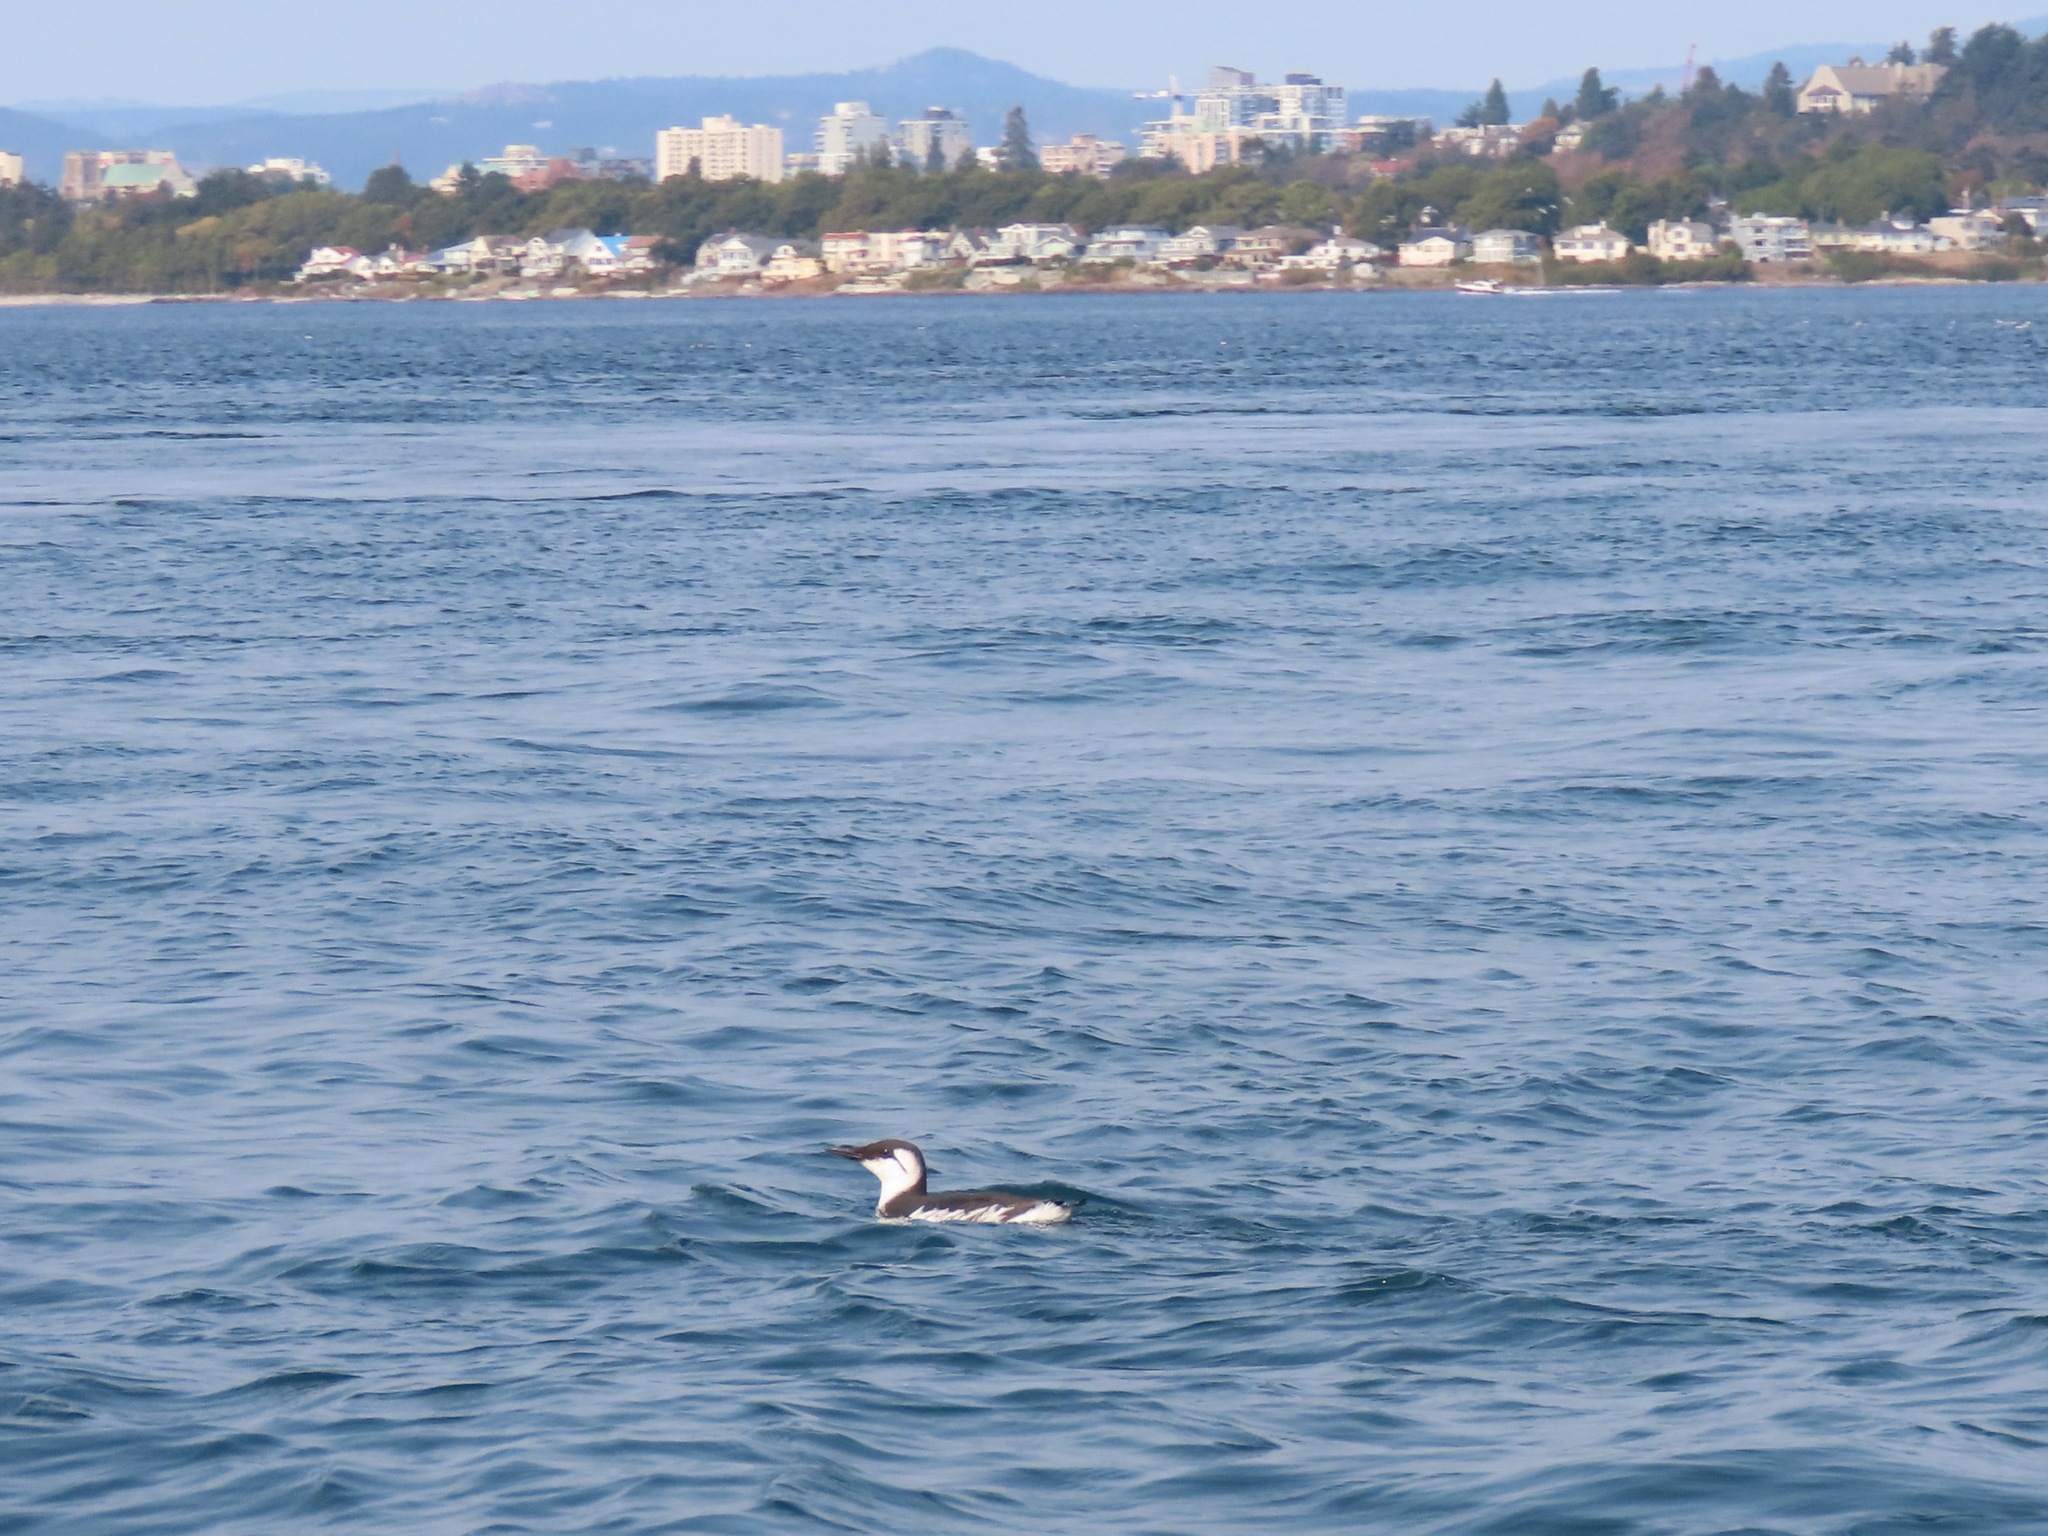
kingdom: Animalia
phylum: Chordata
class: Aves
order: Charadriiformes
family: Alcidae
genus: Uria
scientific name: Uria aalge
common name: Common murre
